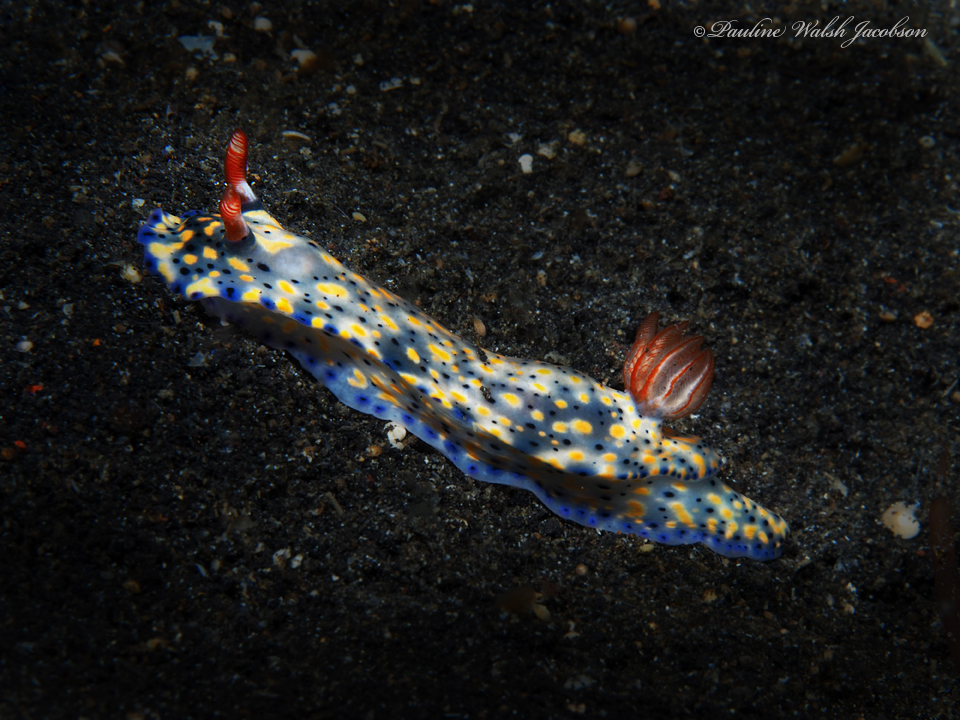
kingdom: Animalia
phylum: Mollusca
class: Gastropoda
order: Nudibranchia
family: Chromodorididae
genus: Hypselodoris
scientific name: Hypselodoris infucata
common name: Mottled dorid
